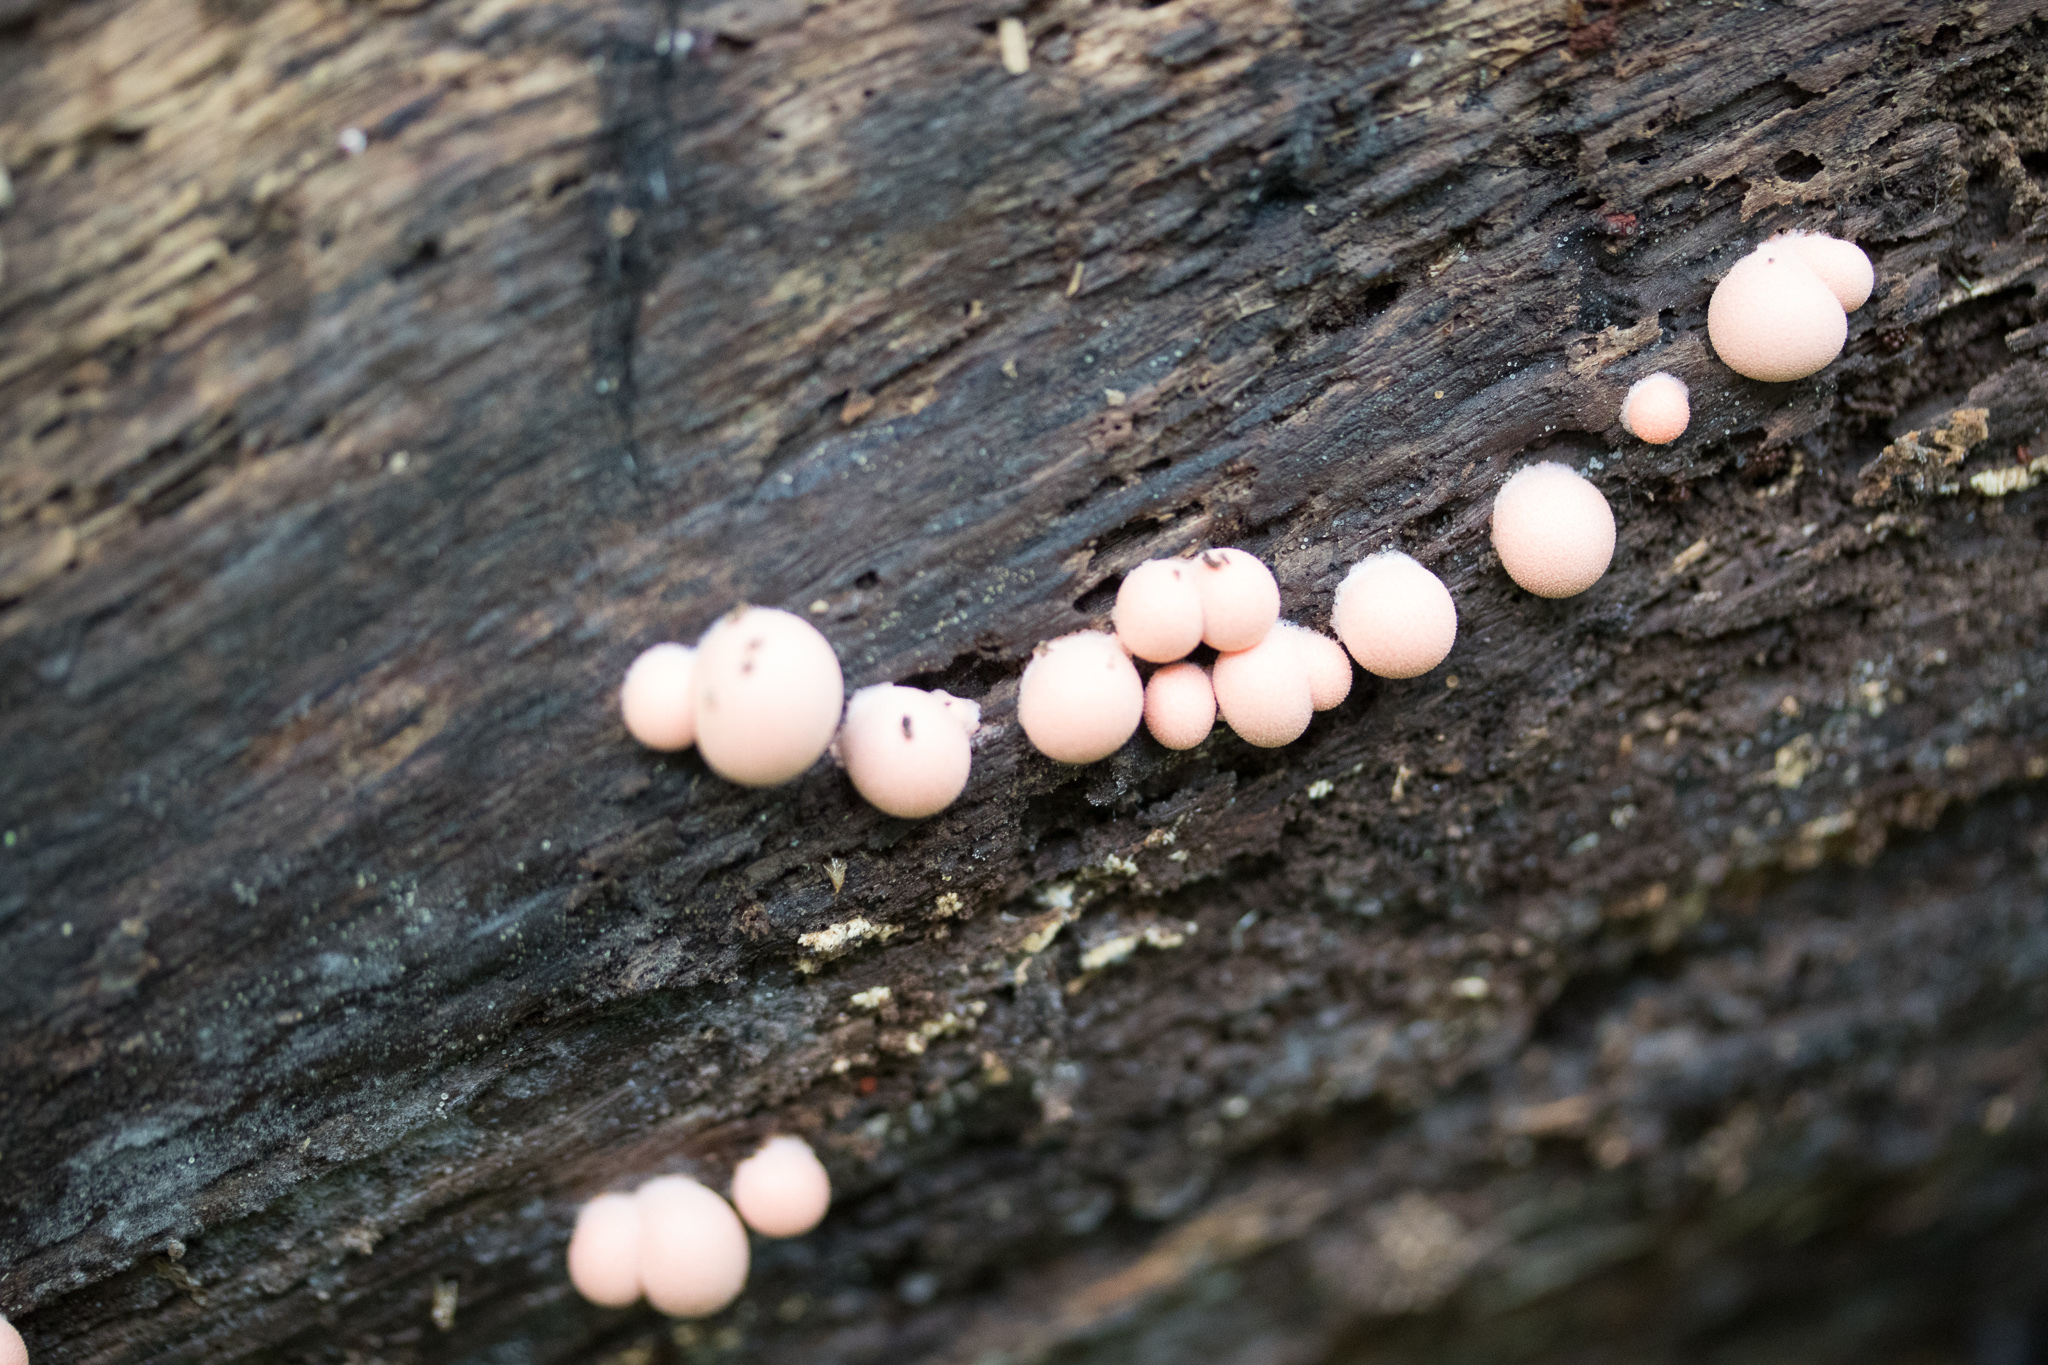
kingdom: Protozoa
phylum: Mycetozoa
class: Myxomycetes
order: Cribrariales
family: Tubiferaceae
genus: Lycogala
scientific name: Lycogala epidendrum
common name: Wolf's milk
